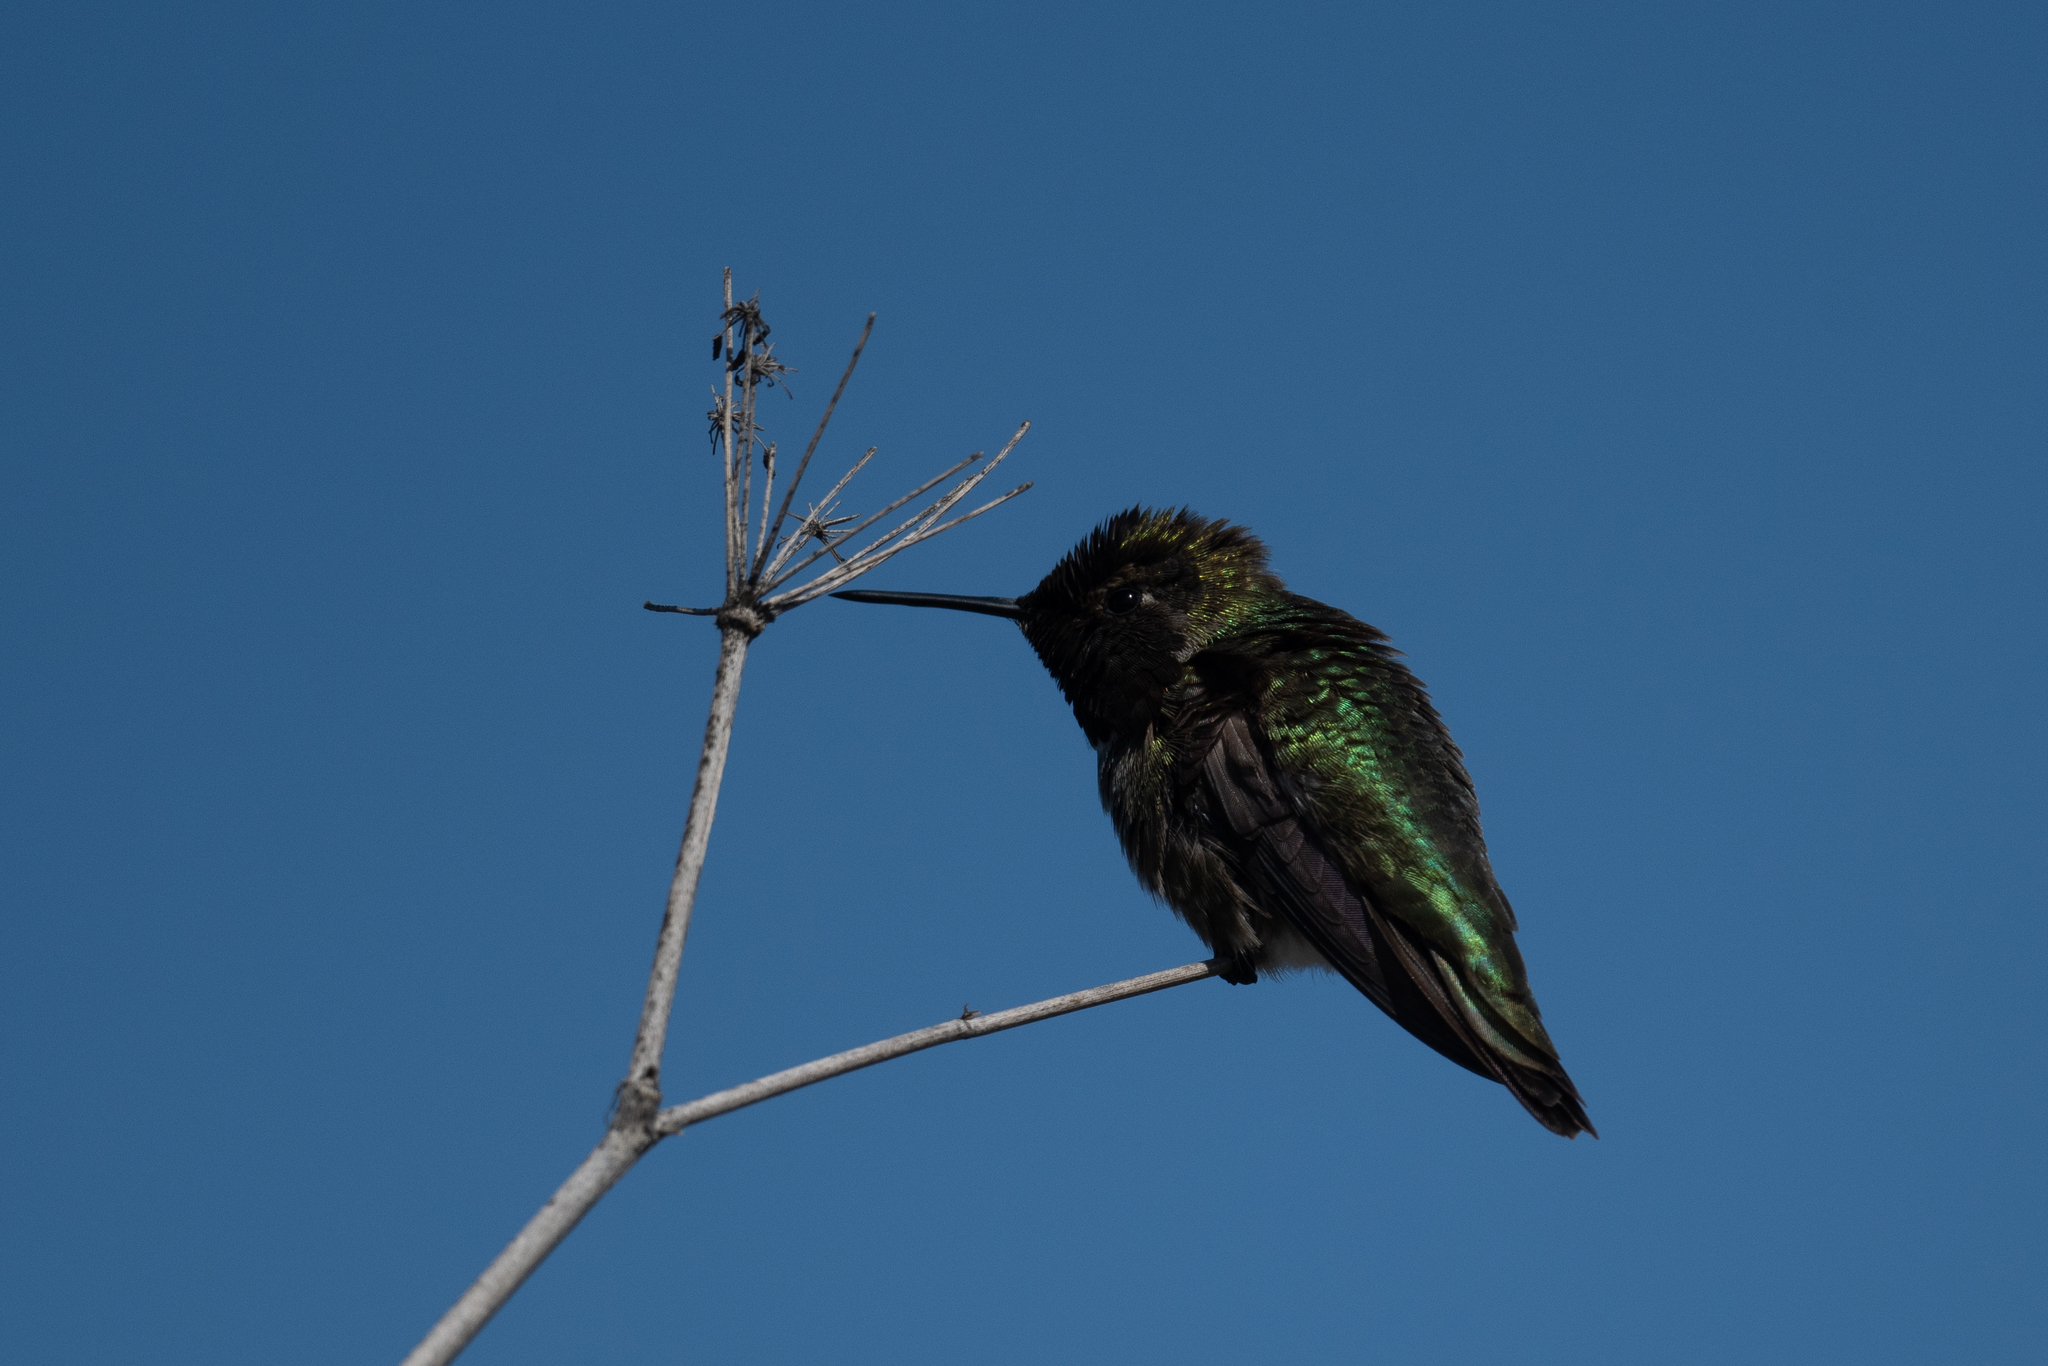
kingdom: Animalia
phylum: Chordata
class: Aves
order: Apodiformes
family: Trochilidae
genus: Calypte
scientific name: Calypte anna
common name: Anna's hummingbird
